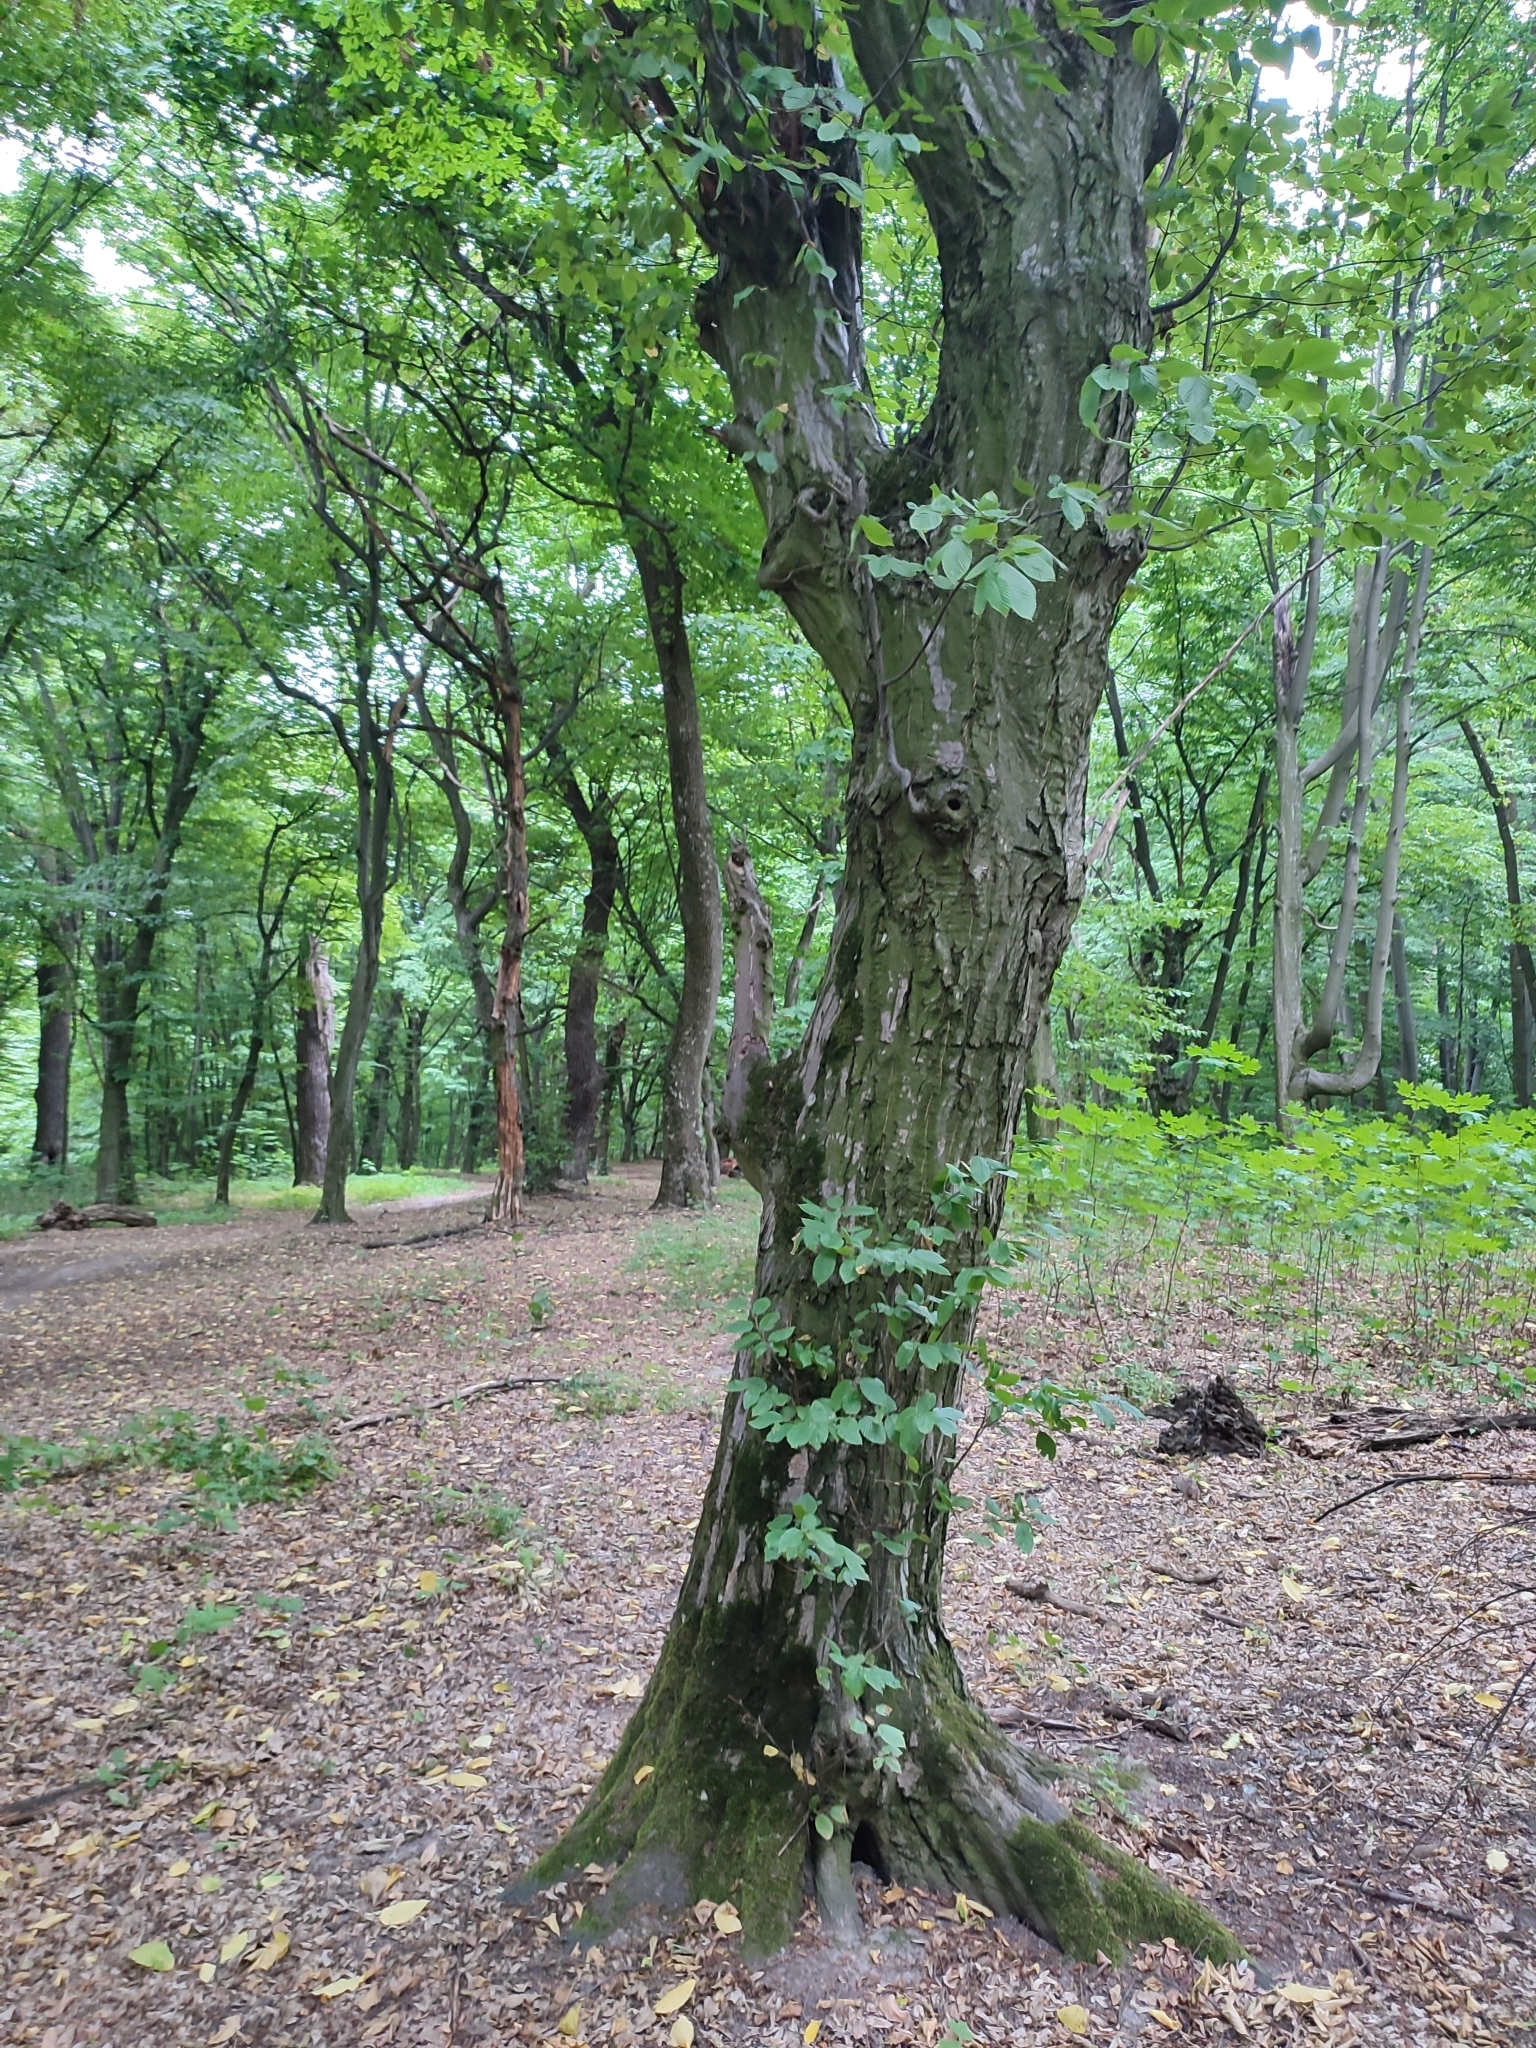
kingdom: Plantae
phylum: Tracheophyta
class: Magnoliopsida
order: Fagales
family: Betulaceae
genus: Carpinus
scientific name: Carpinus betulus
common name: Hornbeam
